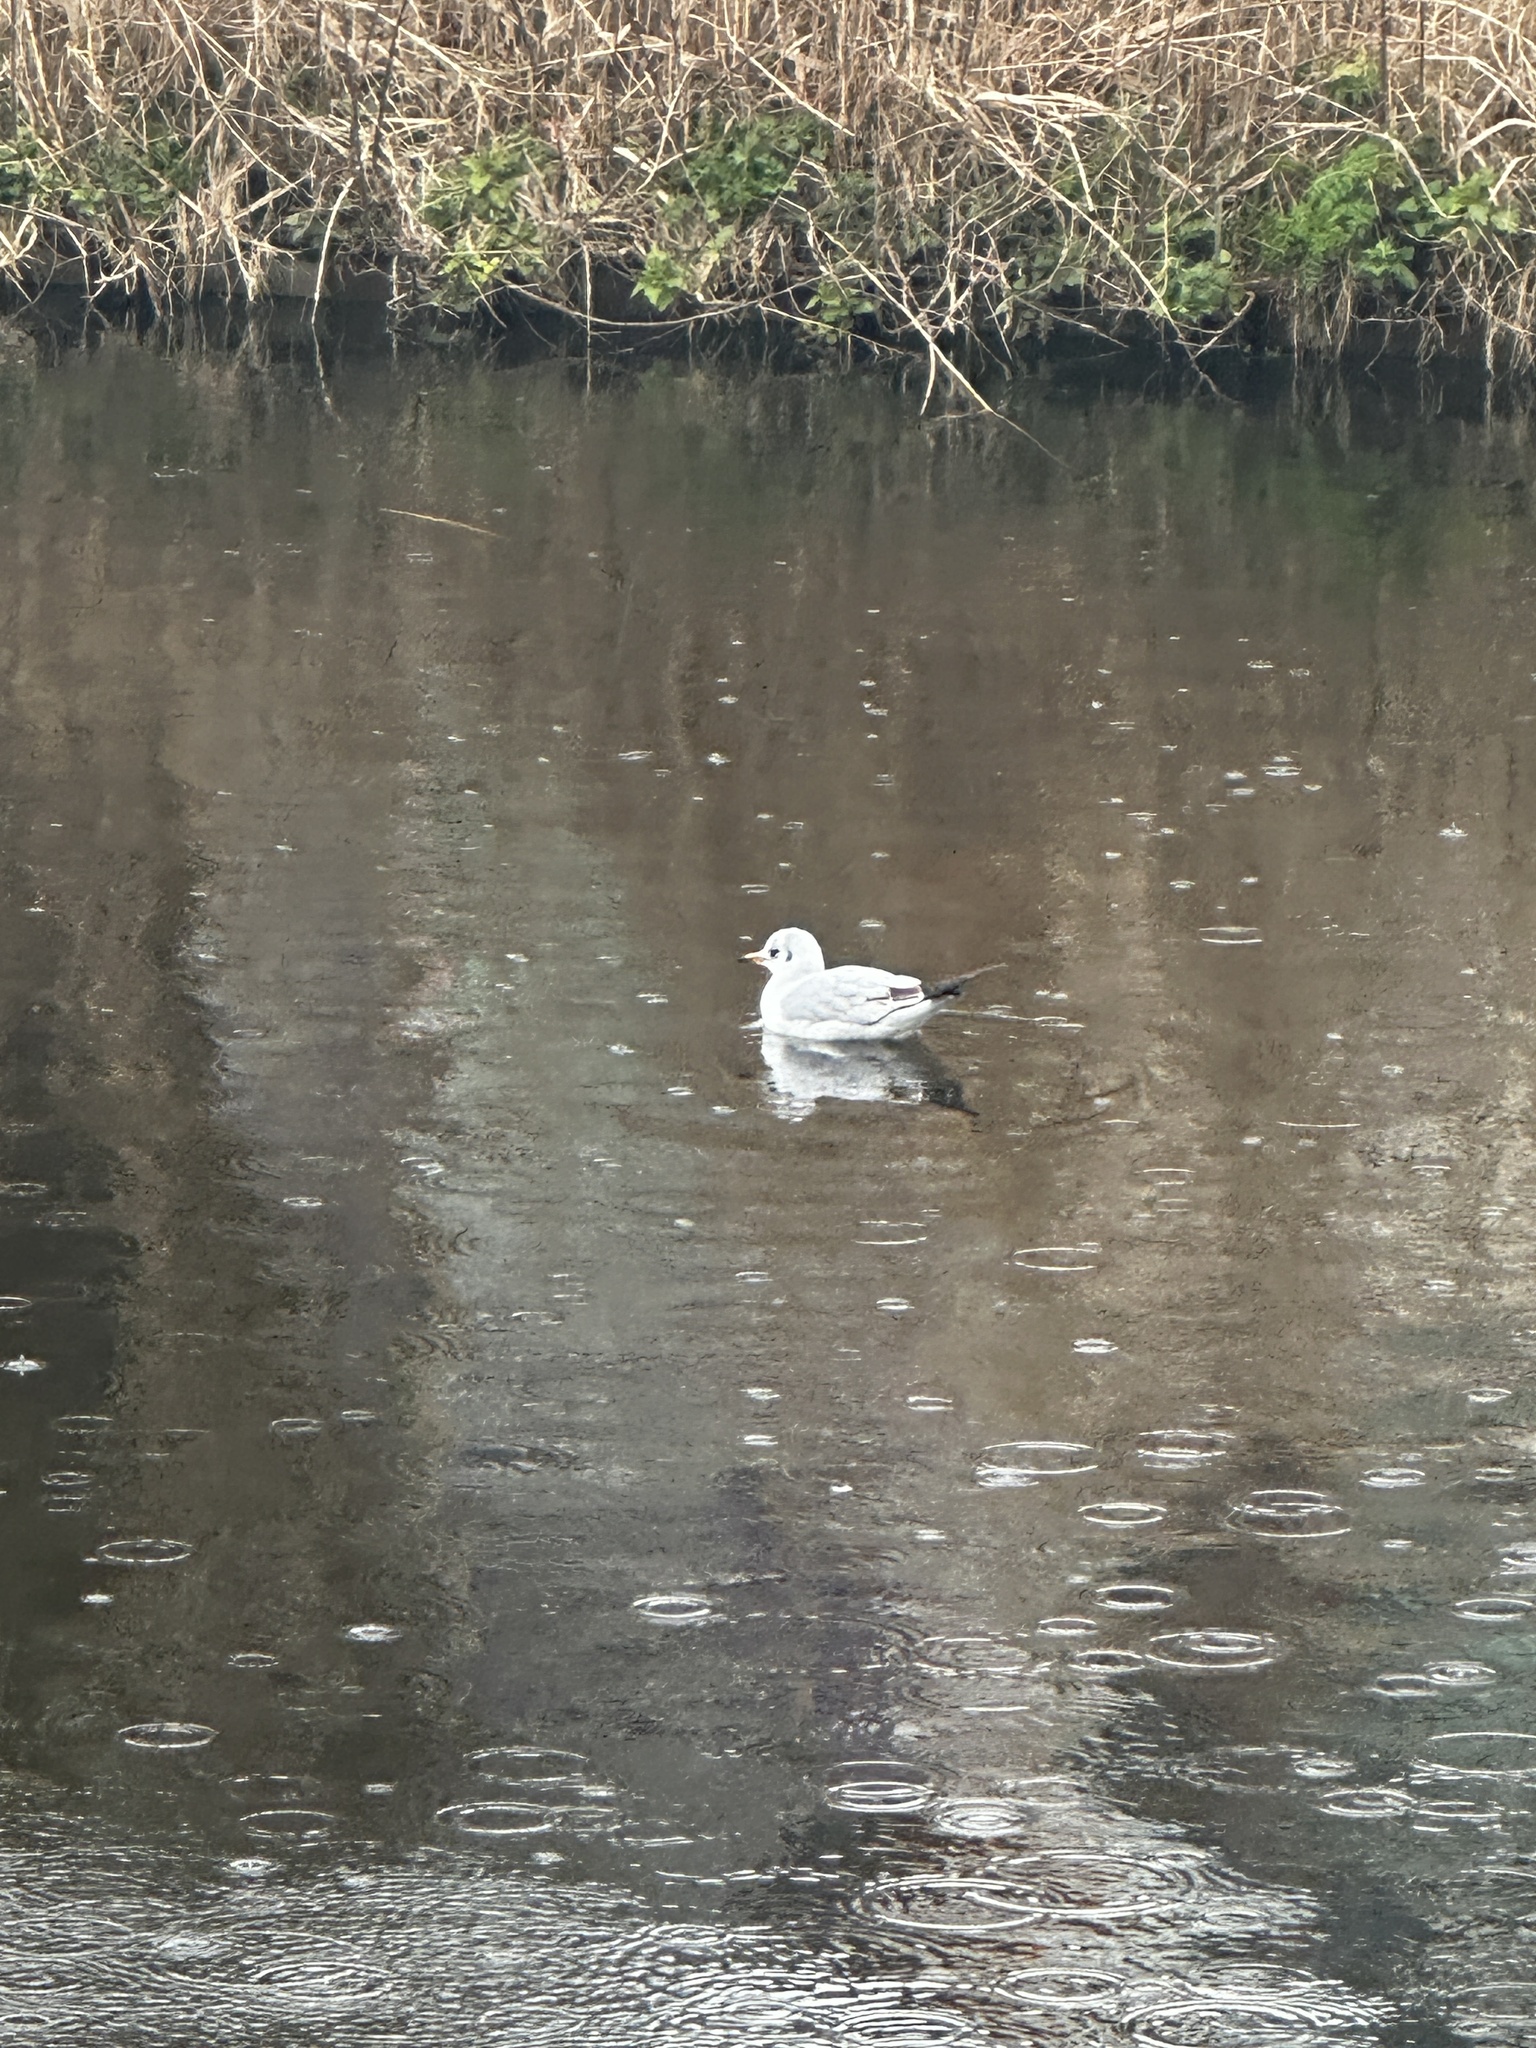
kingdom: Animalia
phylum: Chordata
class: Aves
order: Charadriiformes
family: Laridae
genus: Chroicocephalus
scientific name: Chroicocephalus ridibundus
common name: Black-headed gull
